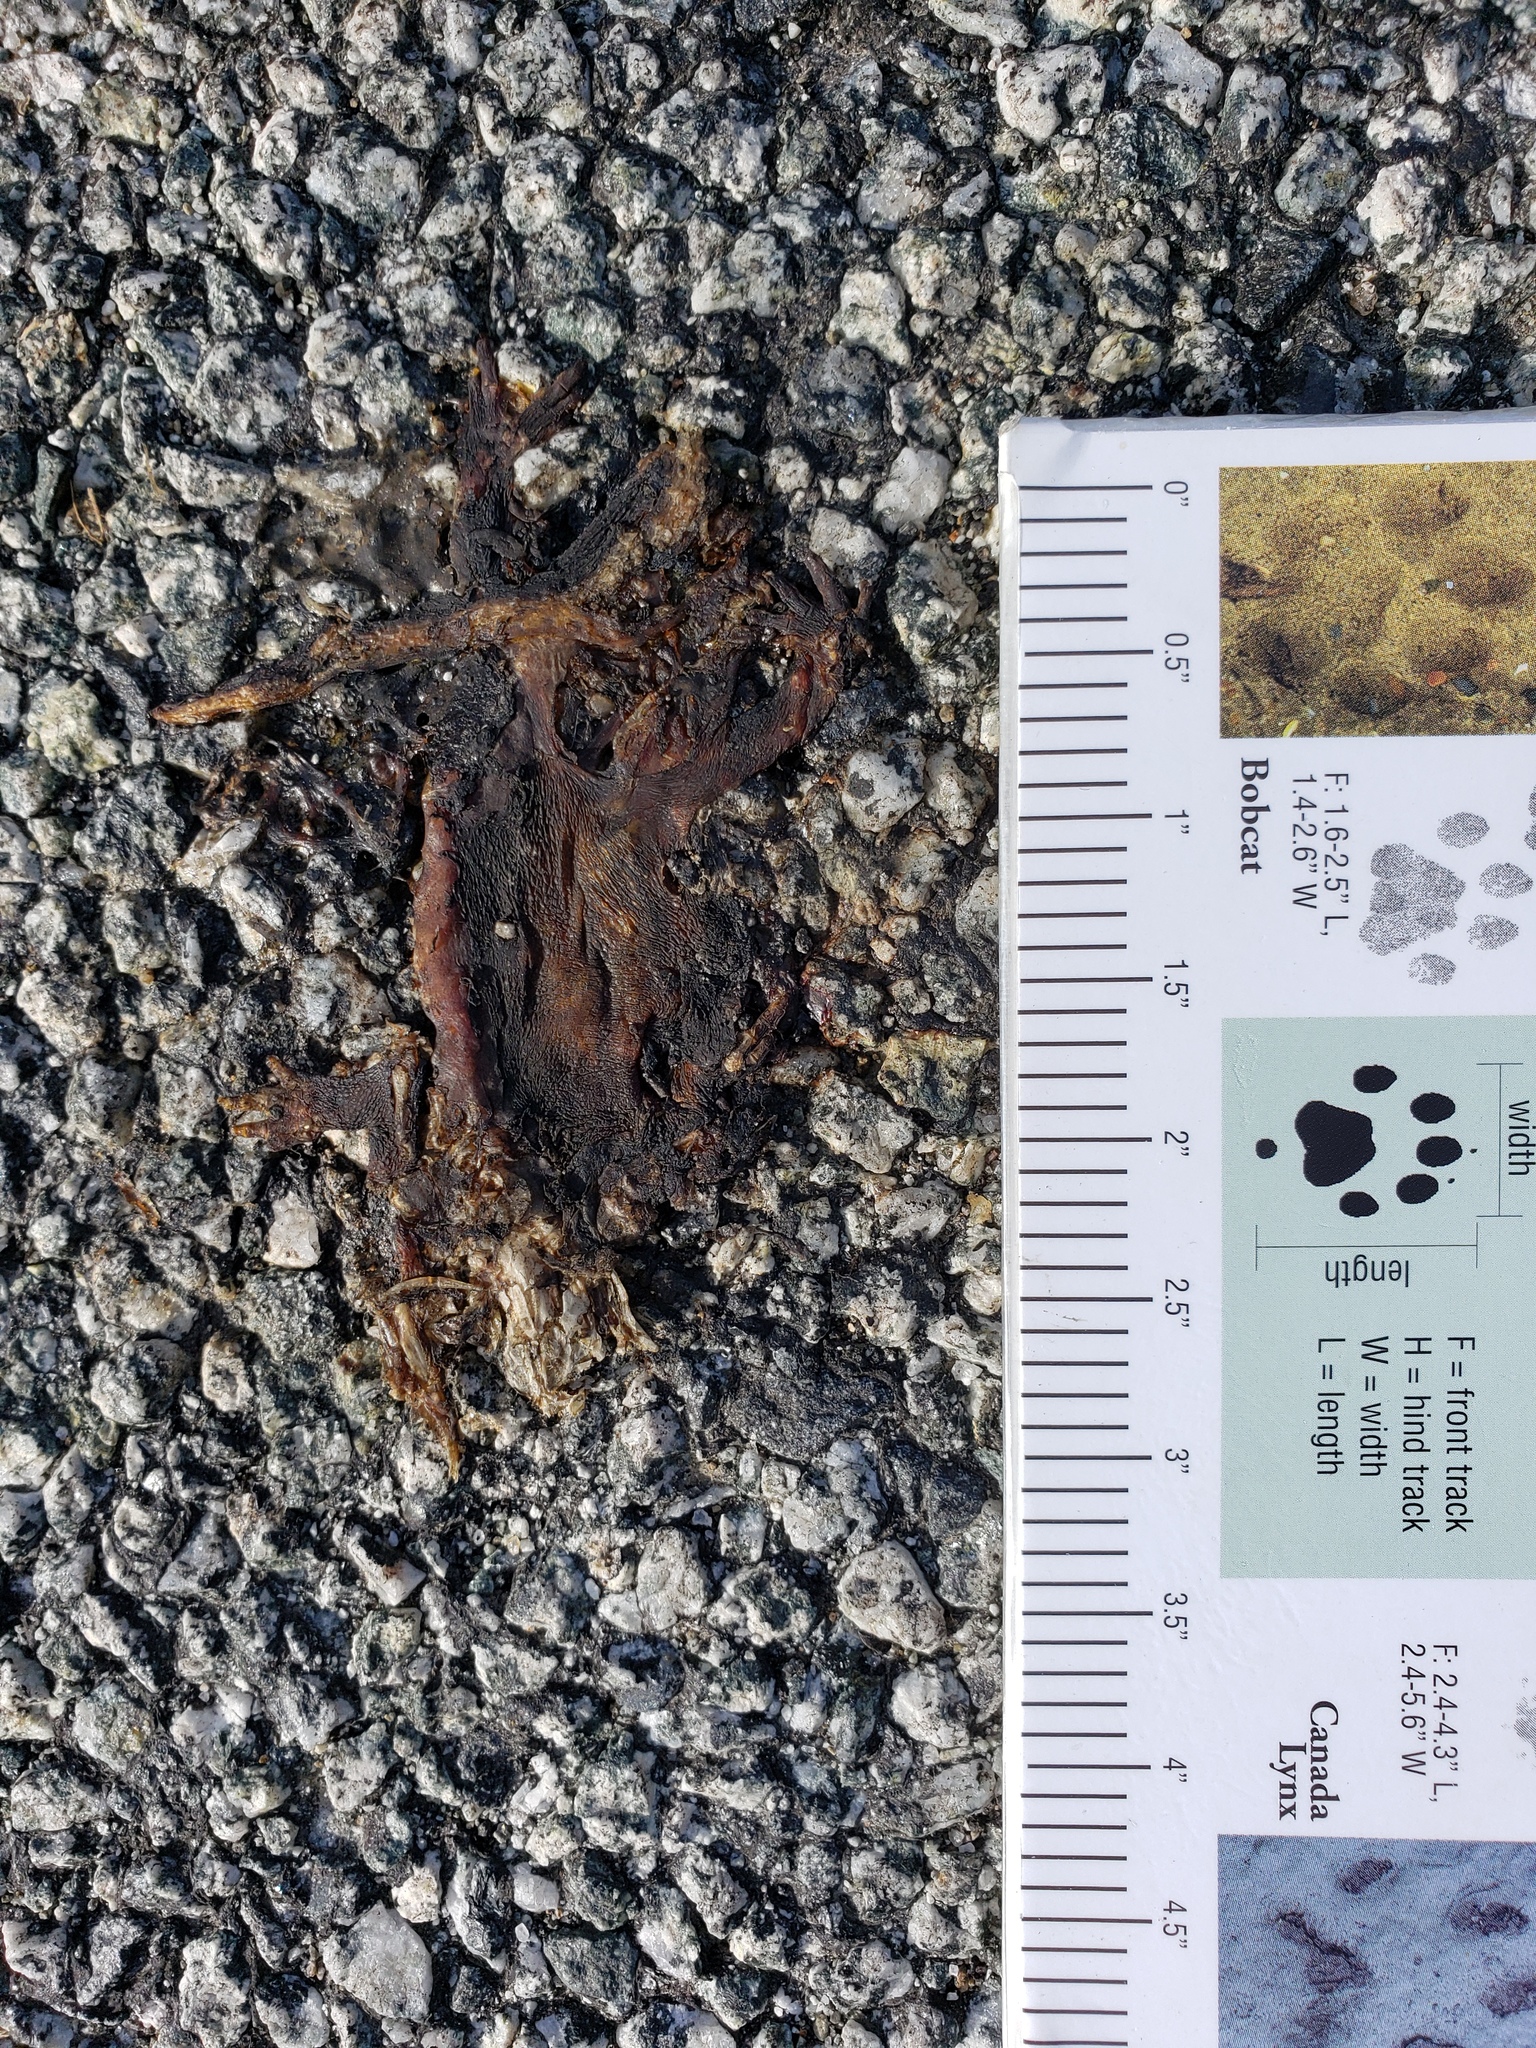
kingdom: Animalia
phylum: Chordata
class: Amphibia
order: Caudata
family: Salamandridae
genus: Taricha
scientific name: Taricha
